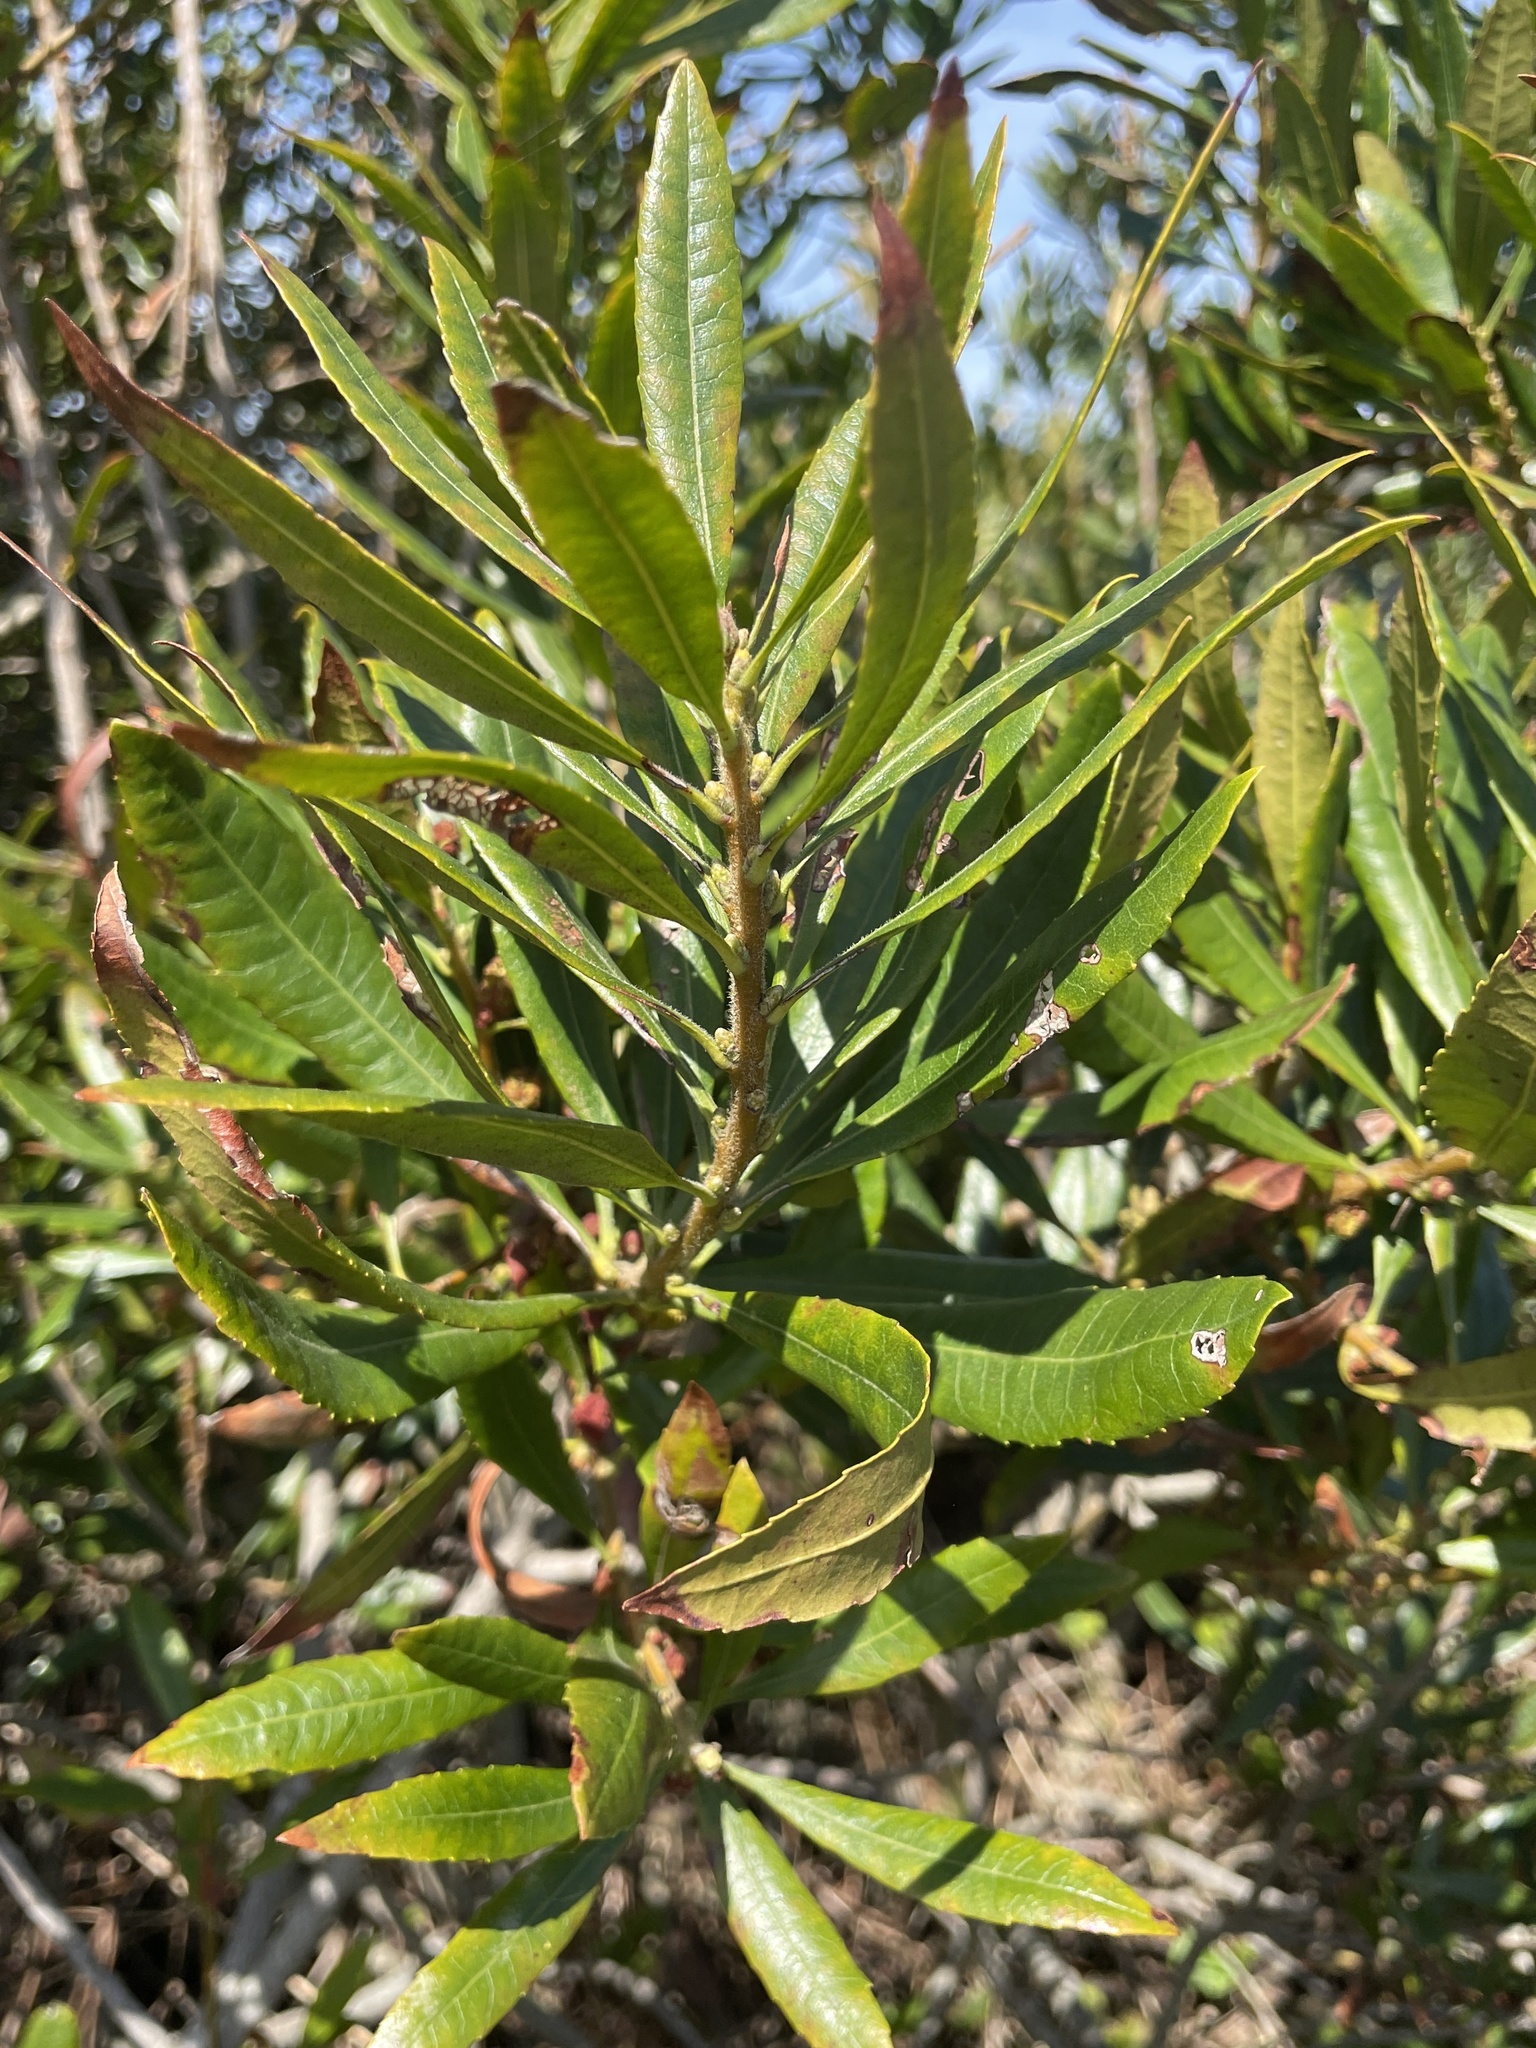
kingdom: Plantae
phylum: Tracheophyta
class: Magnoliopsida
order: Fagales
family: Myricaceae
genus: Morella
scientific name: Morella californica
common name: California wax-myrtle
